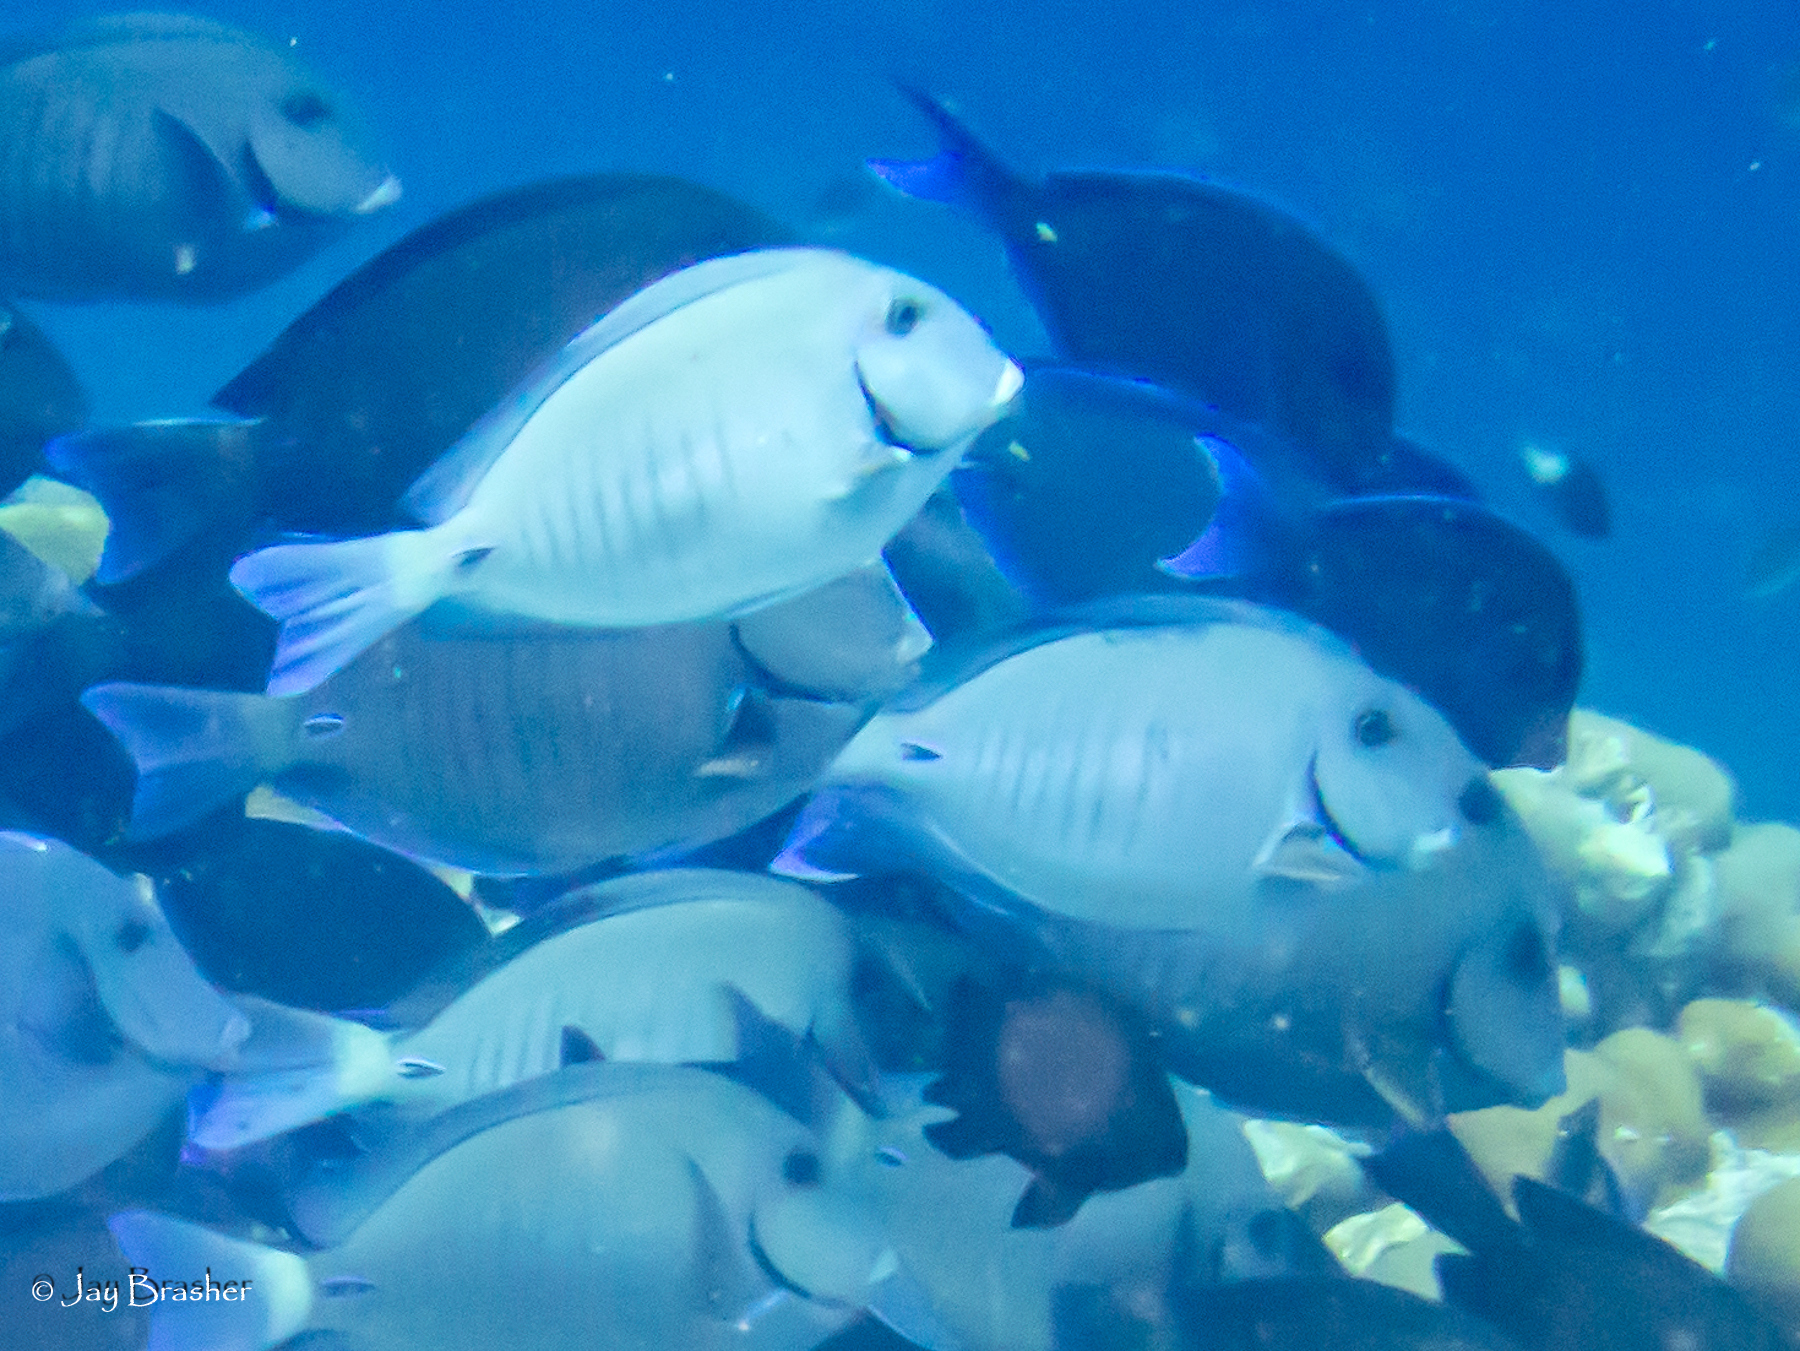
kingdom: Animalia
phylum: Chordata
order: Perciformes
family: Acanthuridae
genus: Acanthurus
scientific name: Acanthurus chirurgus
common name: Doctorfish
